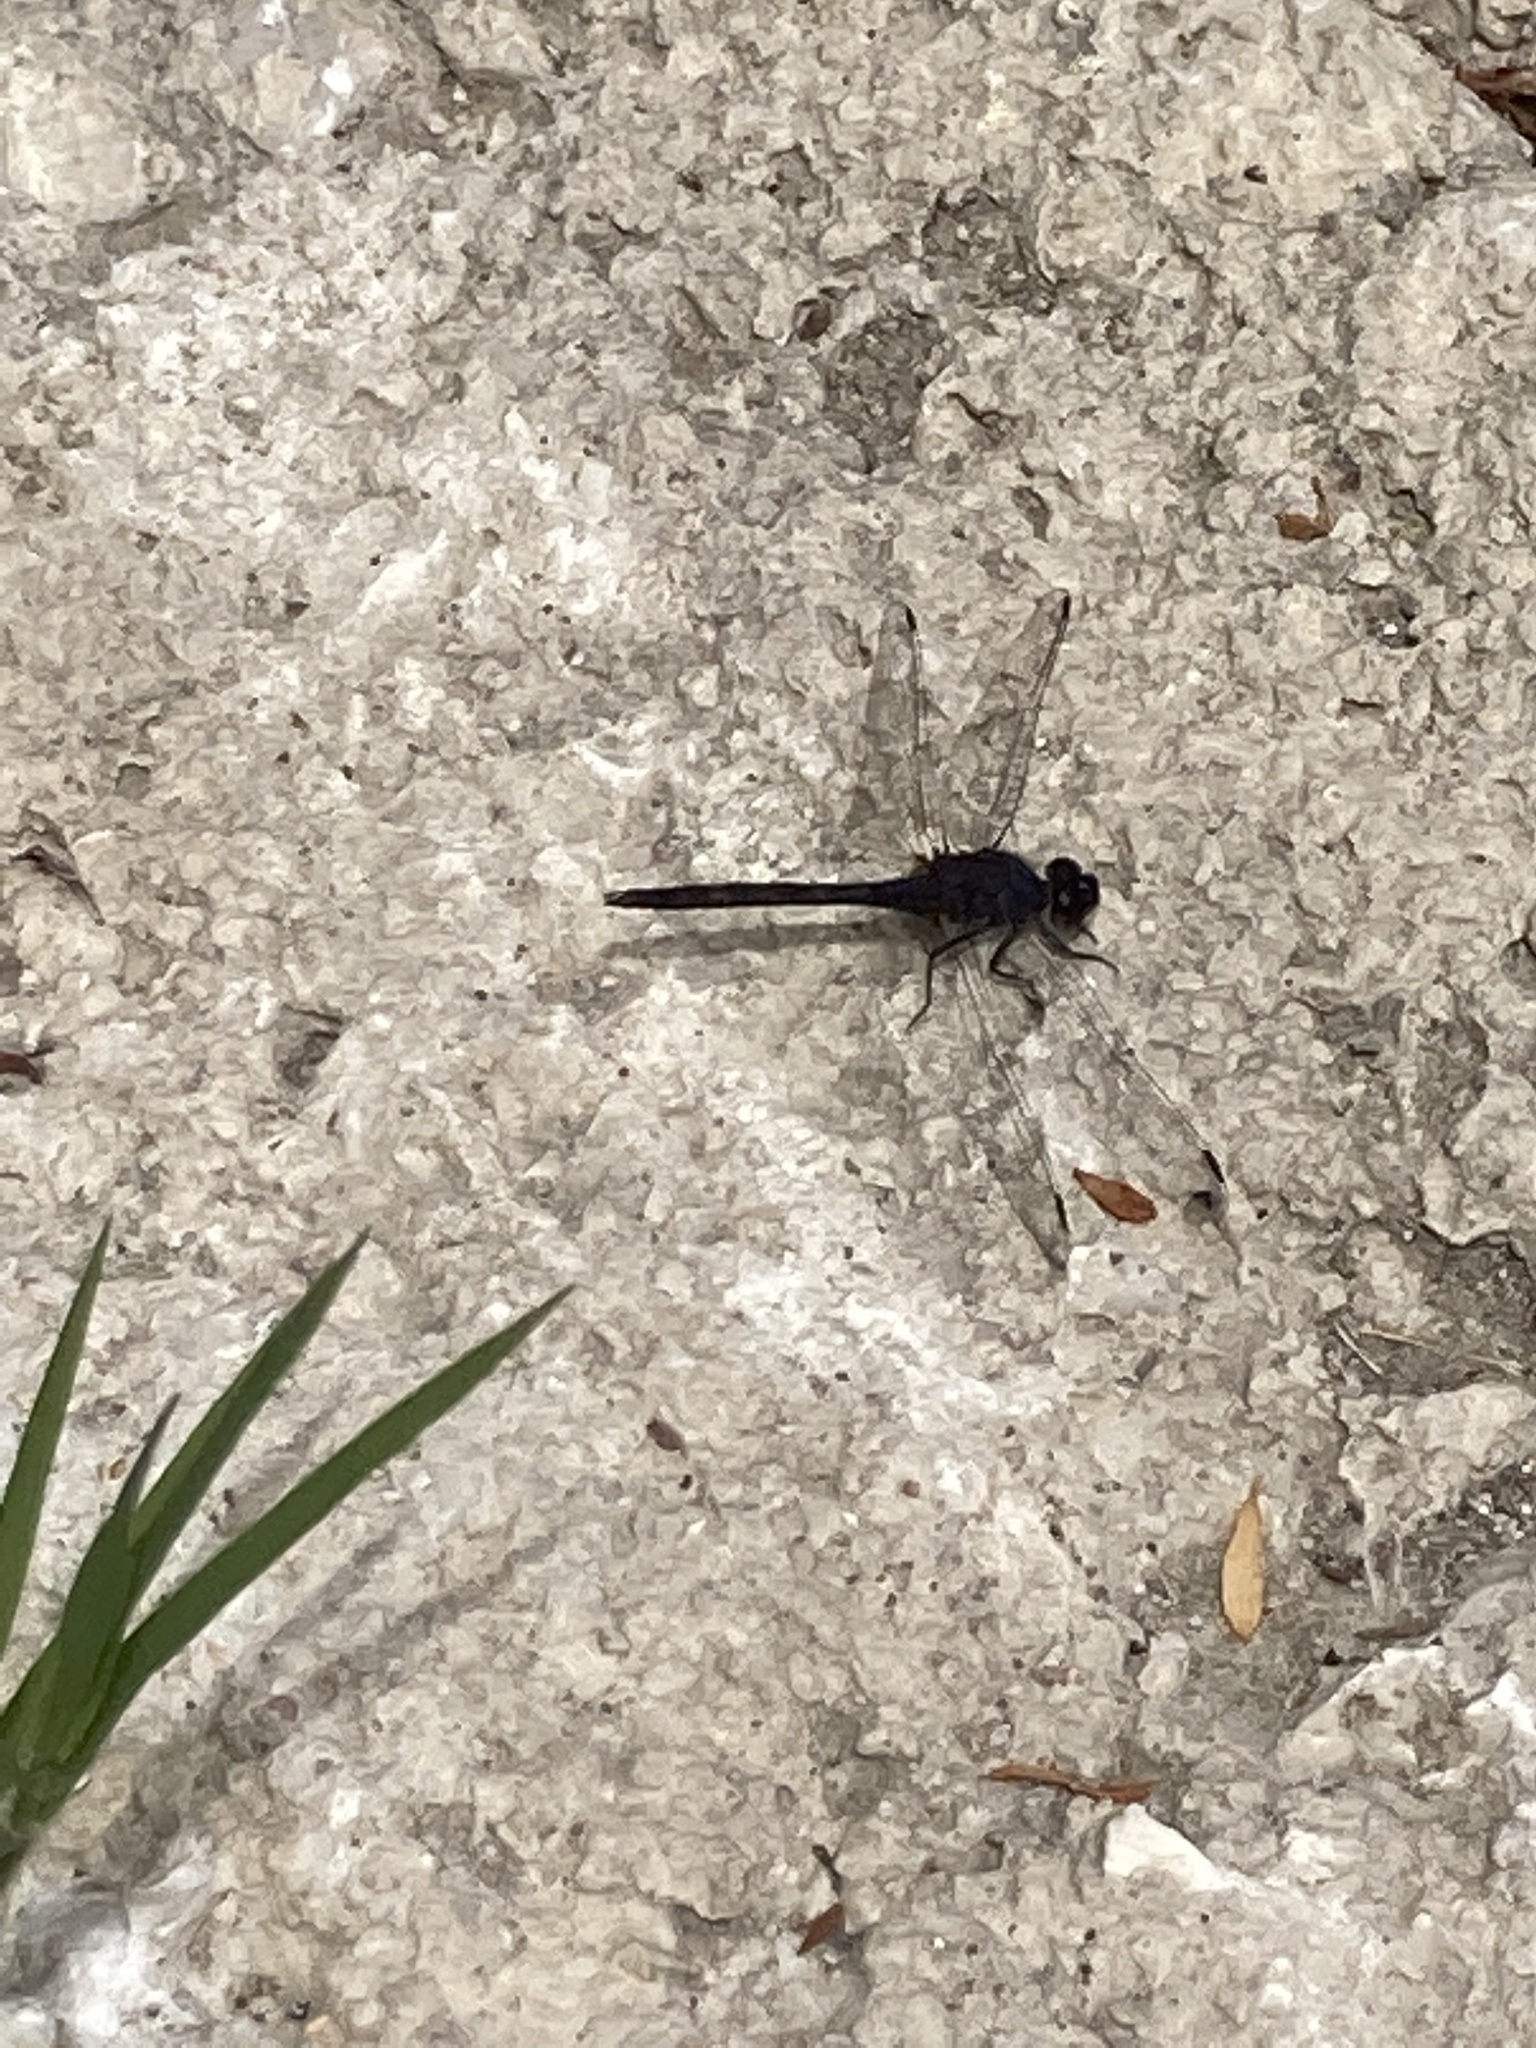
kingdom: Animalia
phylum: Arthropoda
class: Insecta
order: Odonata
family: Libellulidae
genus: Trithemis
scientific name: Trithemis festiva
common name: Indigo dropwing
